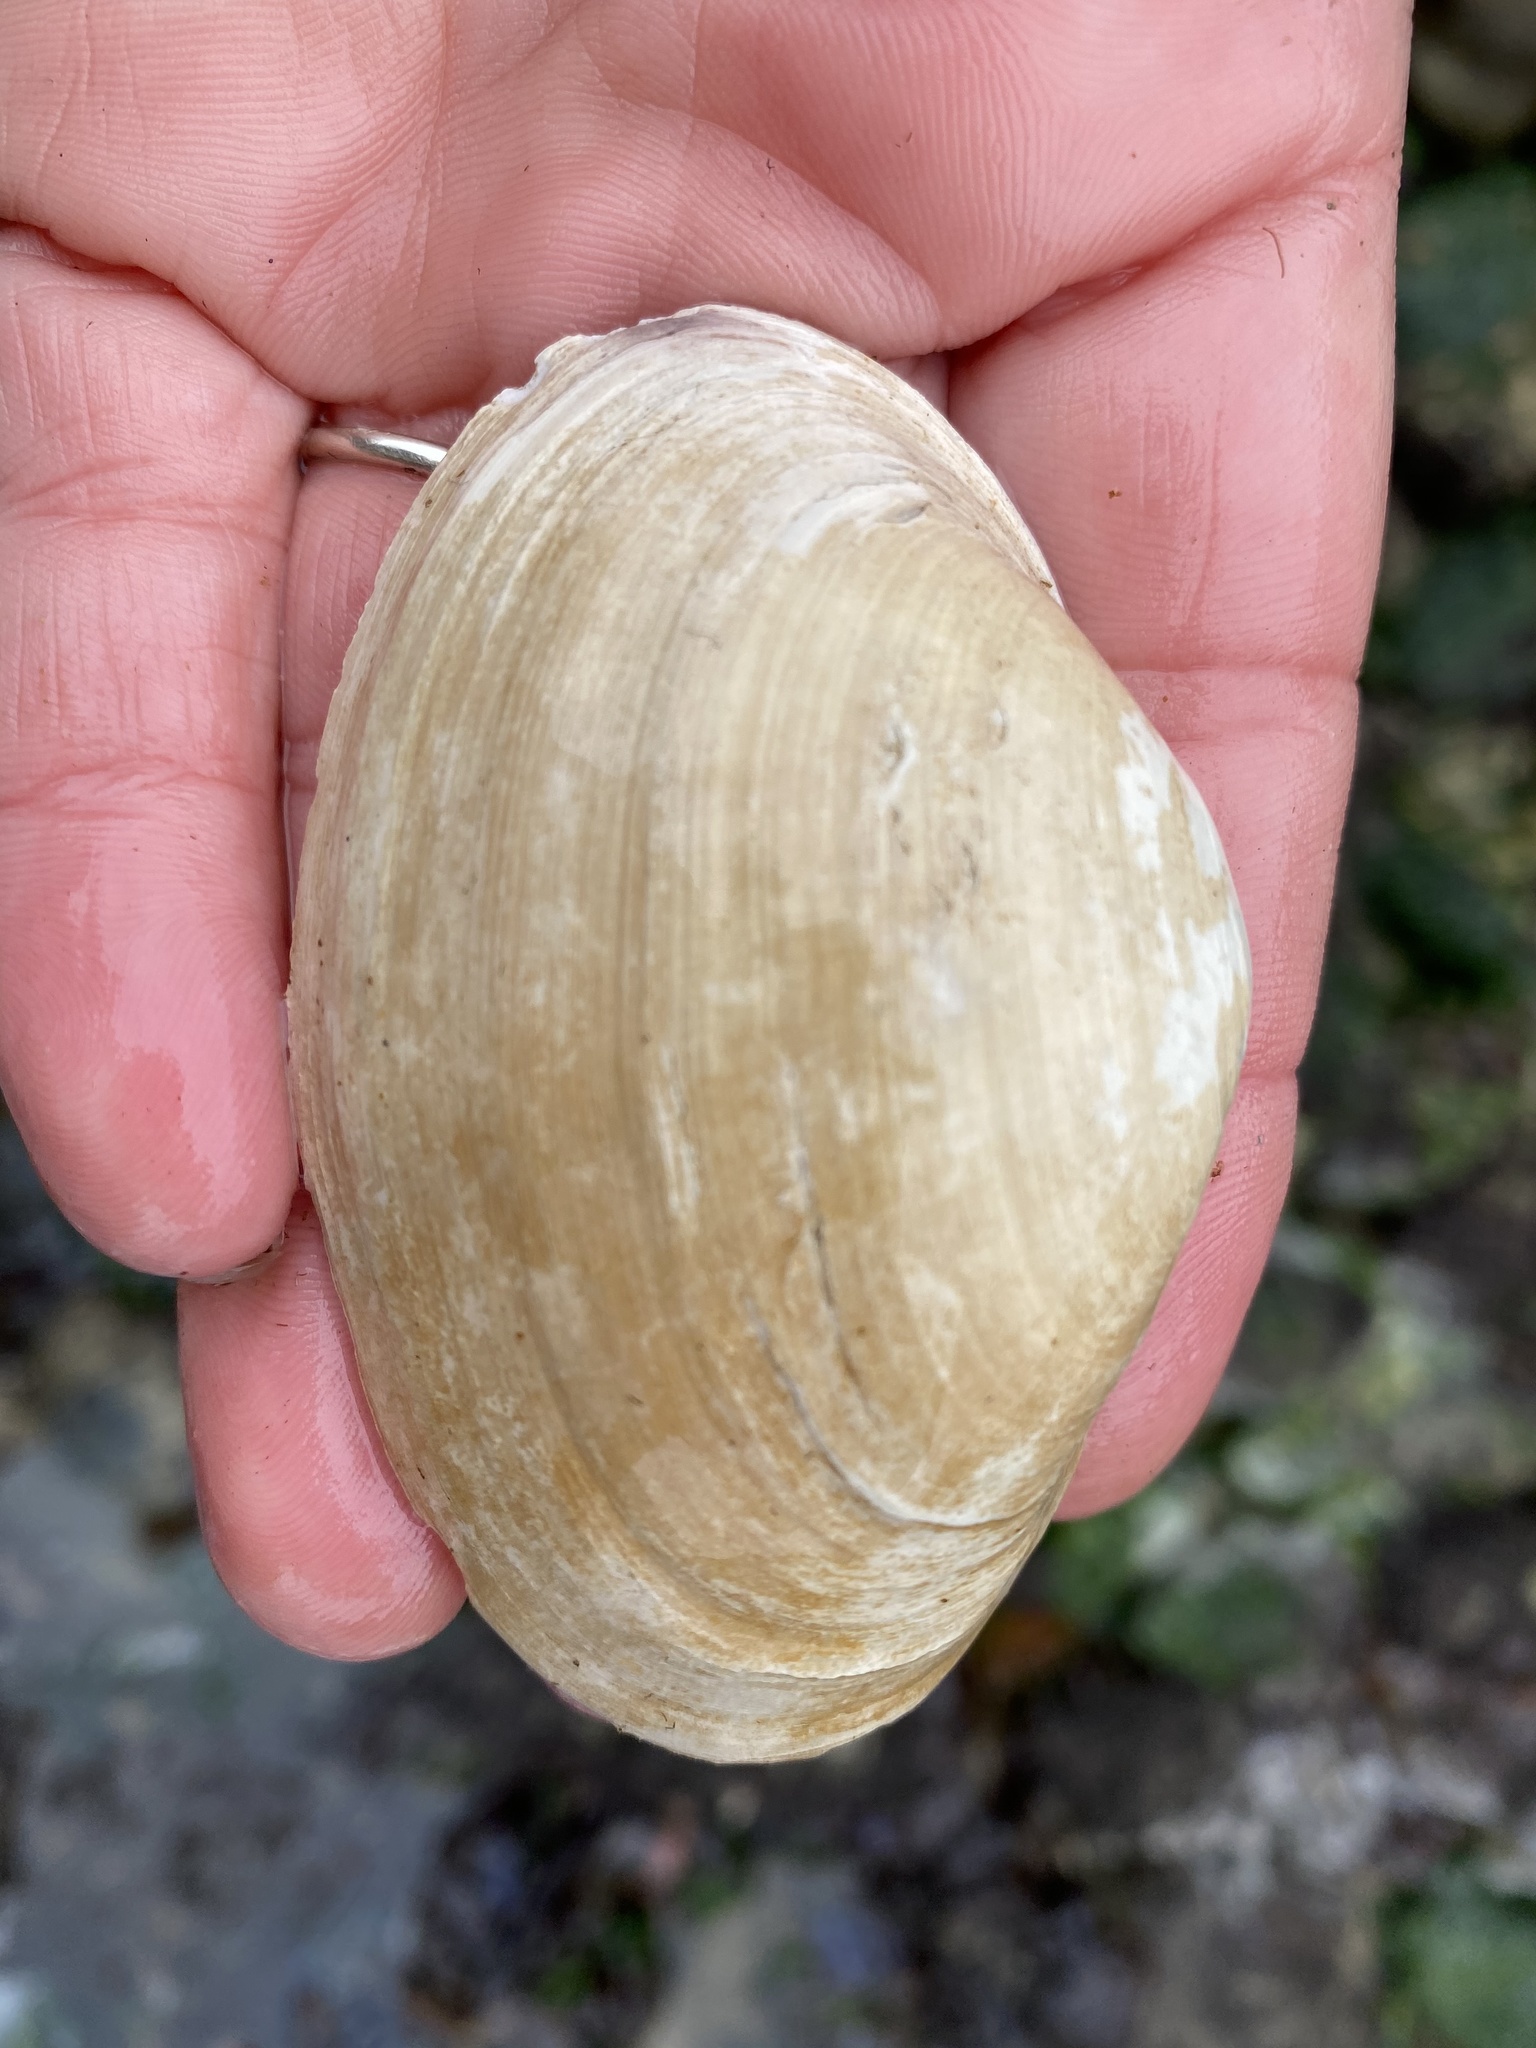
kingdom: Animalia
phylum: Mollusca
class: Bivalvia
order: Venerida
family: Mactridae
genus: Tresus
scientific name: Tresus nuttallii
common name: Pacific gaper clam
